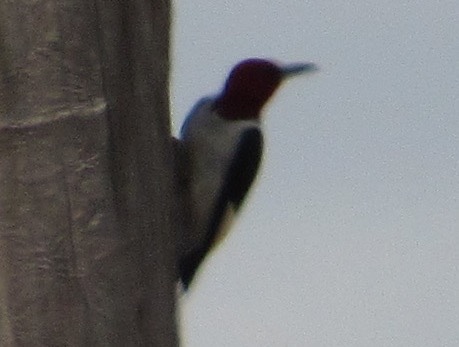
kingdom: Animalia
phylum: Chordata
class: Aves
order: Piciformes
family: Picidae
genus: Melanerpes
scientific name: Melanerpes erythrocephalus
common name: Red-headed woodpecker
